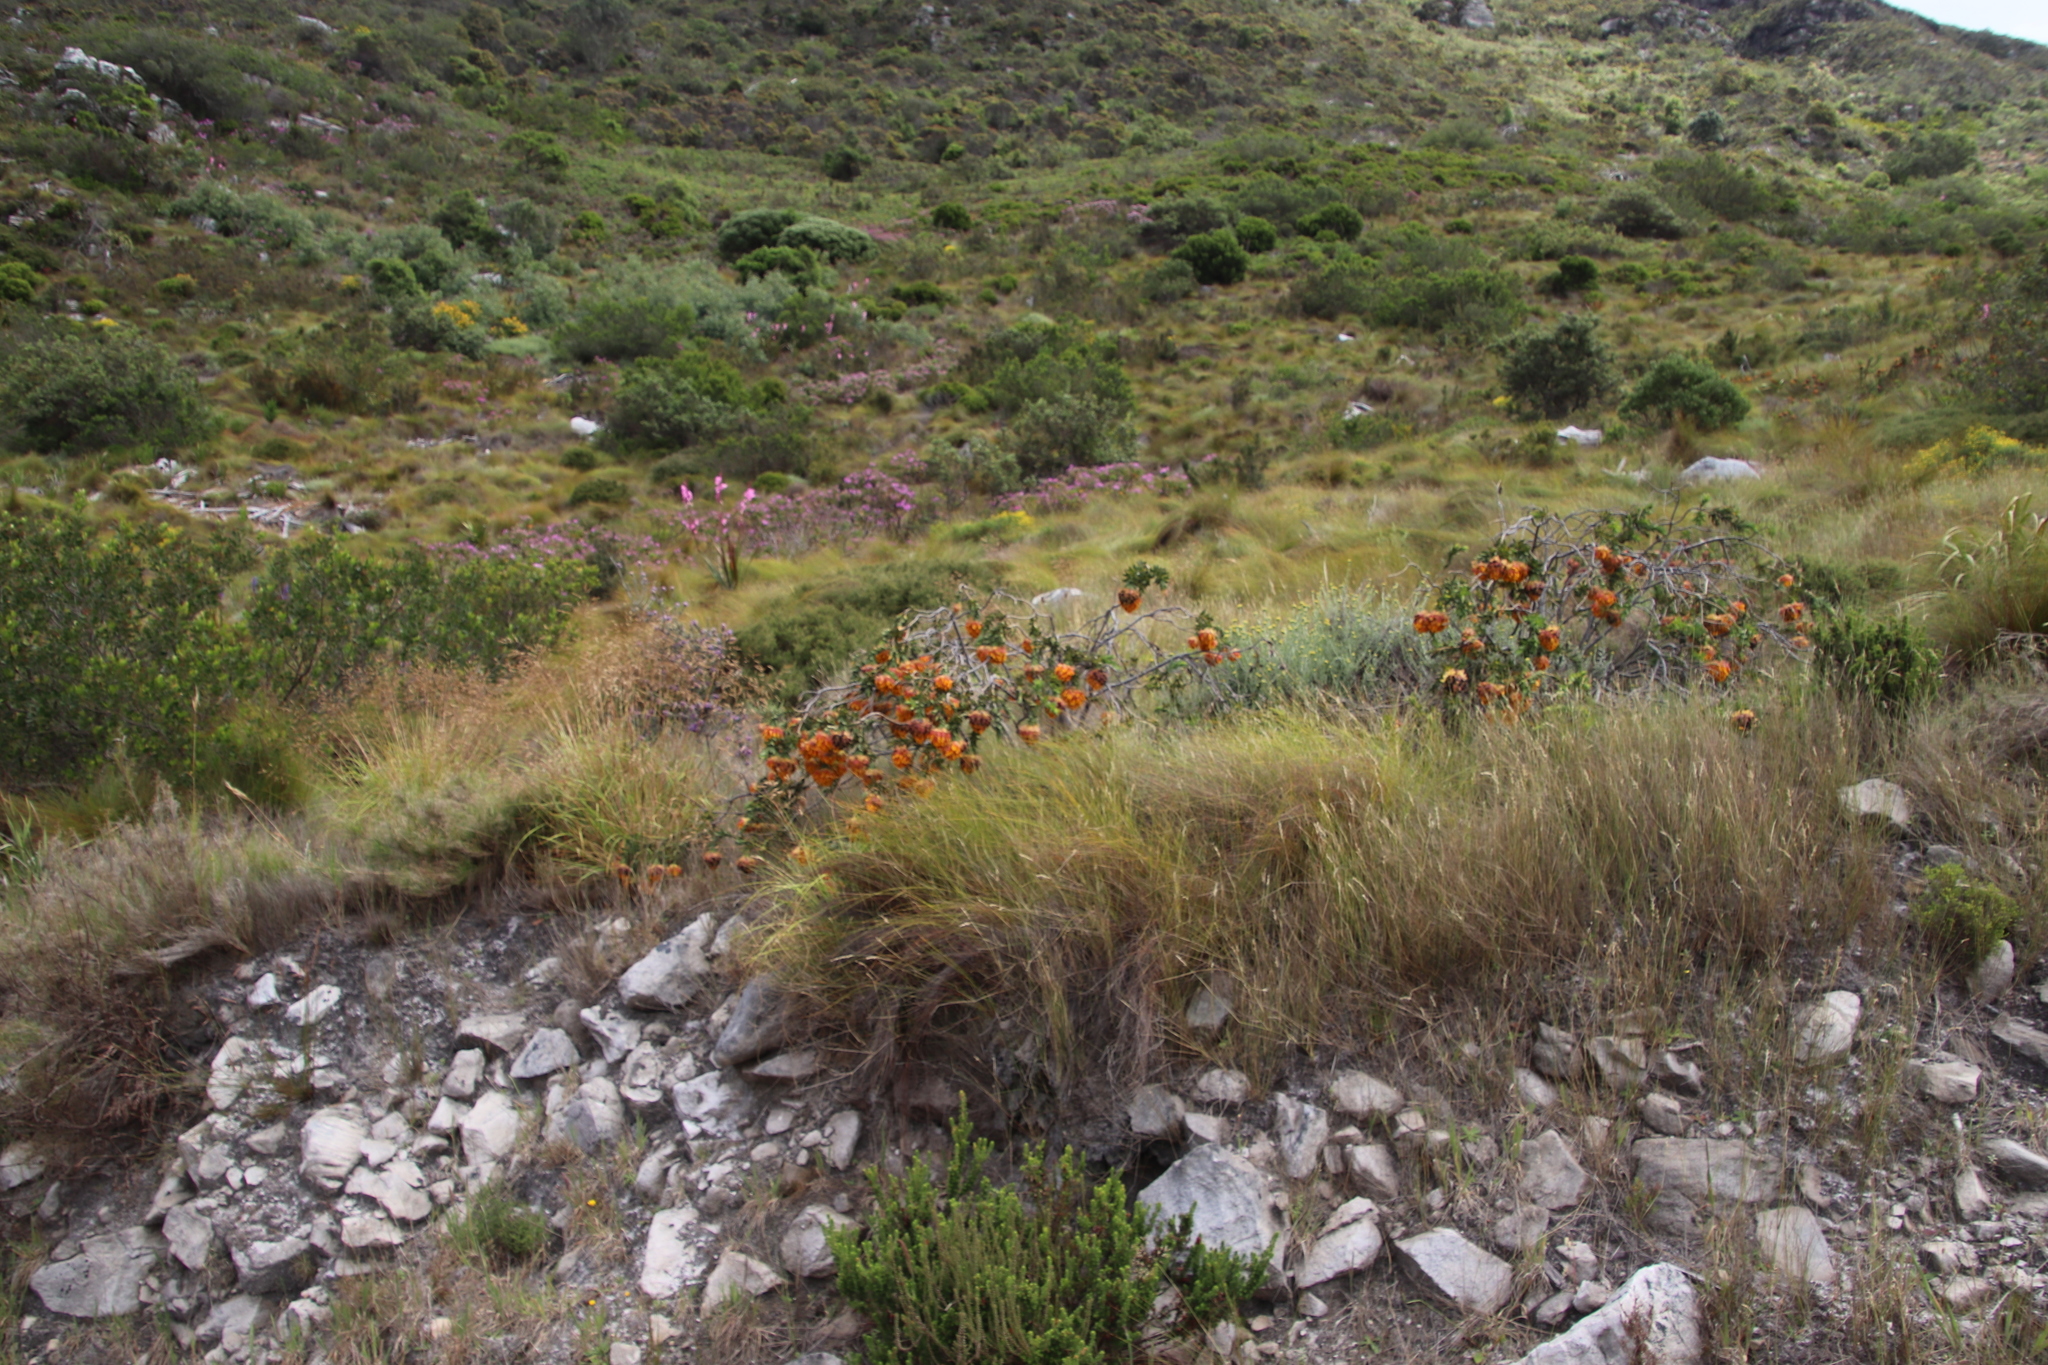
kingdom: Plantae
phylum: Tracheophyta
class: Magnoliopsida
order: Fabales
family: Fabaceae
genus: Liparia
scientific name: Liparia splendens
